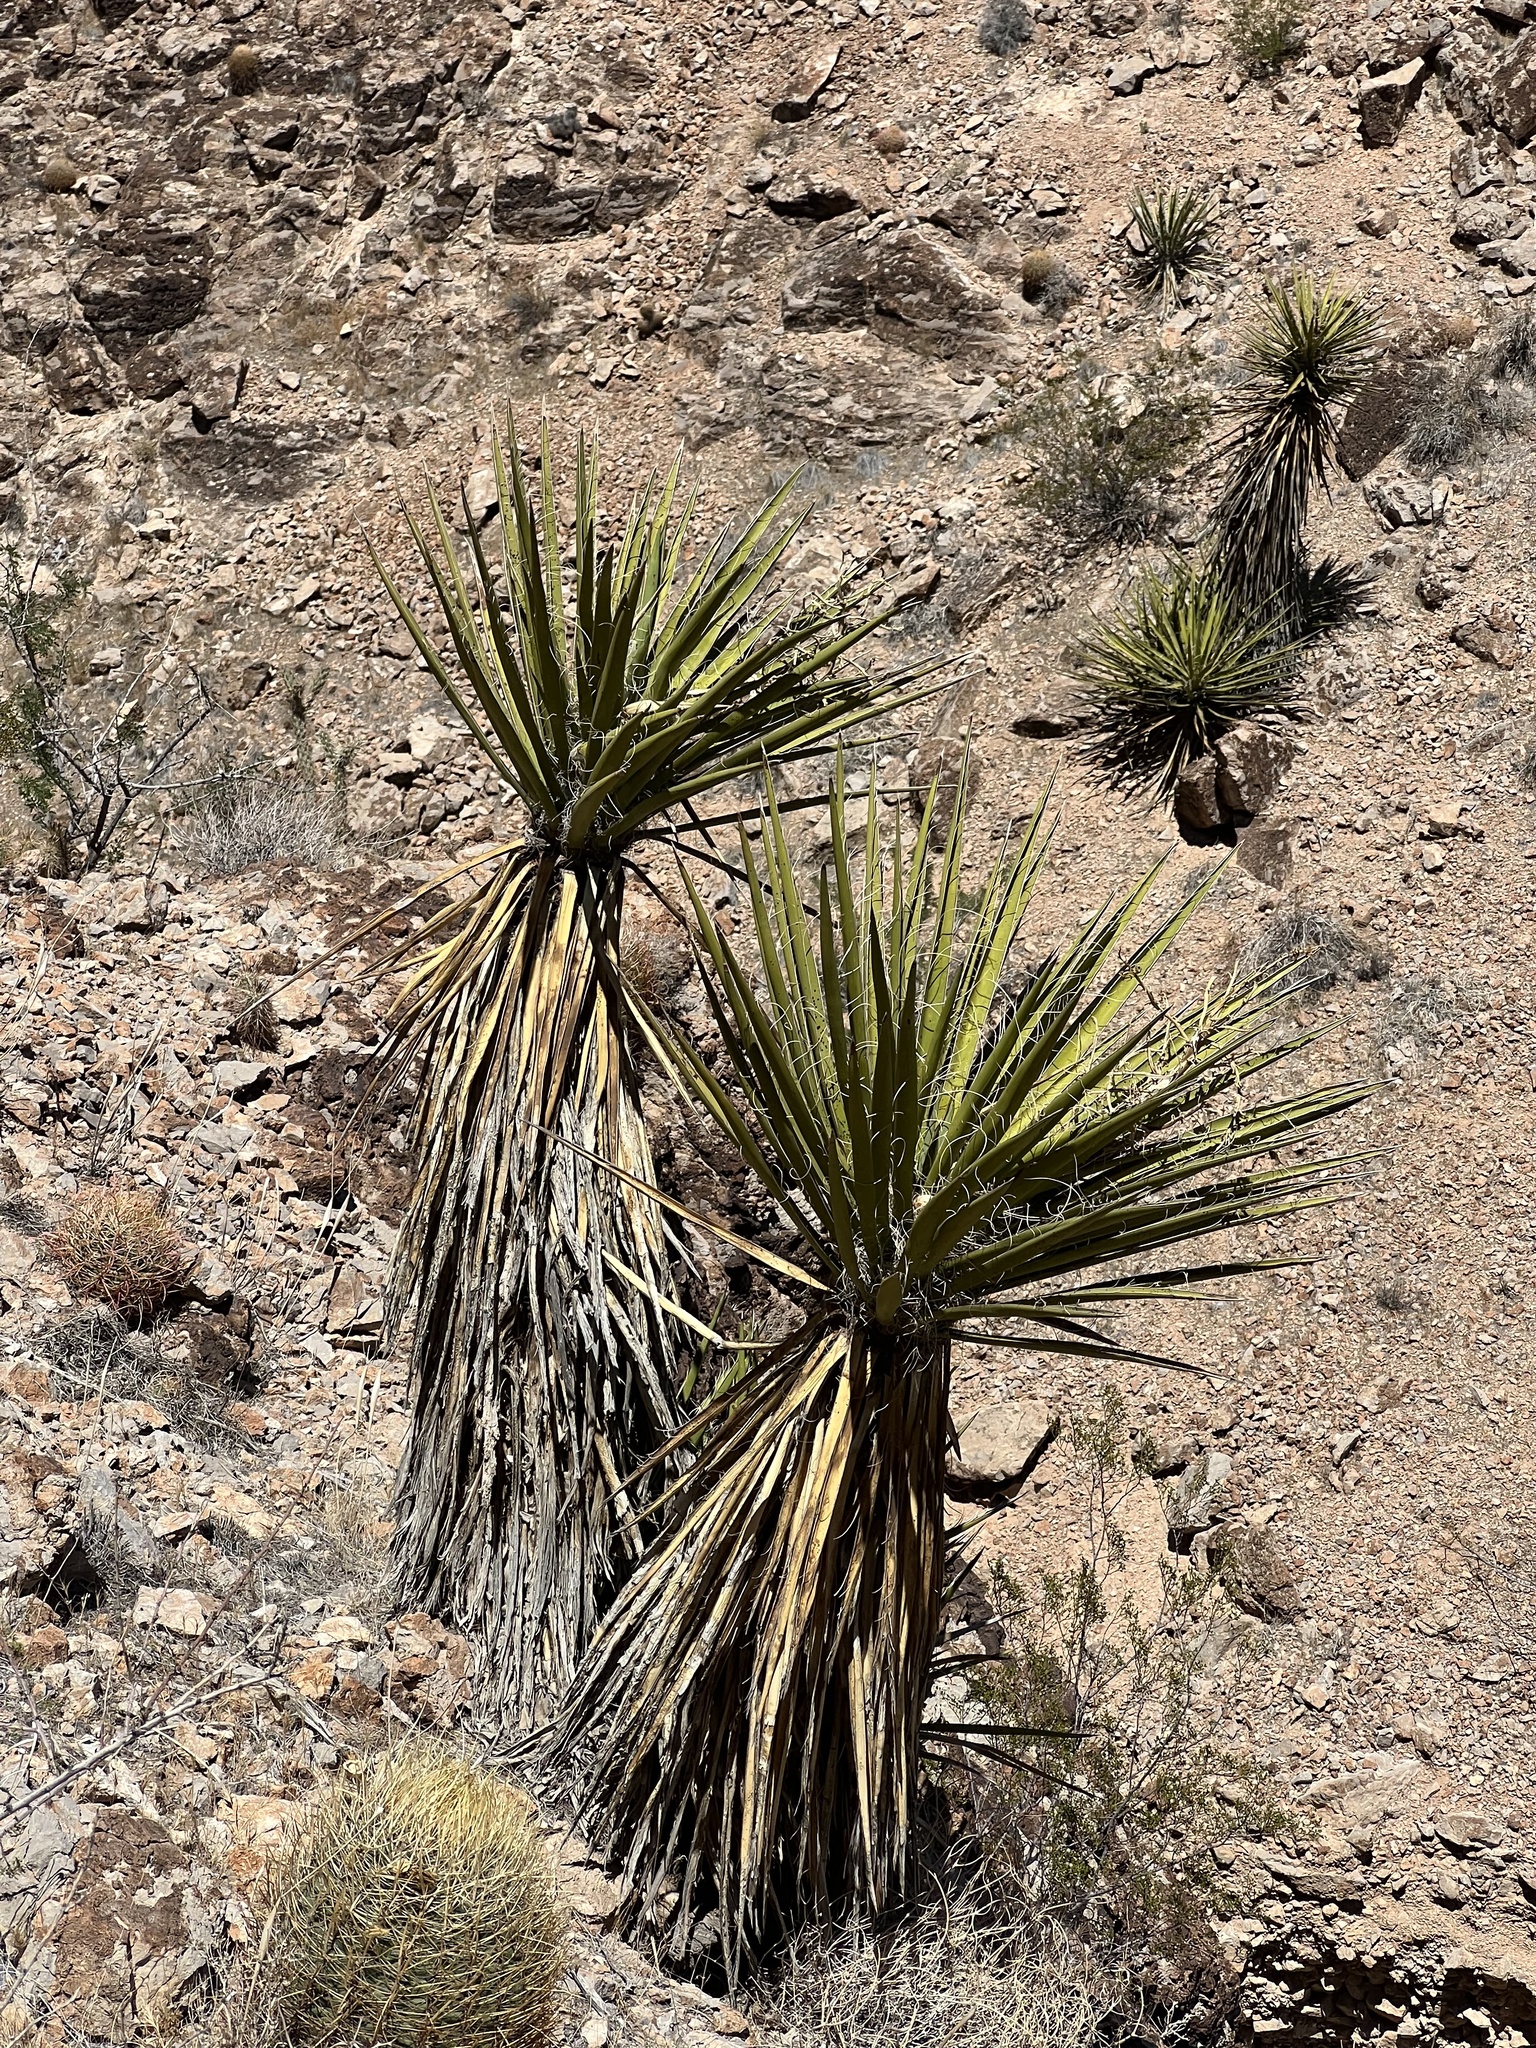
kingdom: Plantae
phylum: Tracheophyta
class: Liliopsida
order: Asparagales
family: Asparagaceae
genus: Yucca
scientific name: Yucca schidigera
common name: Mojave yucca
